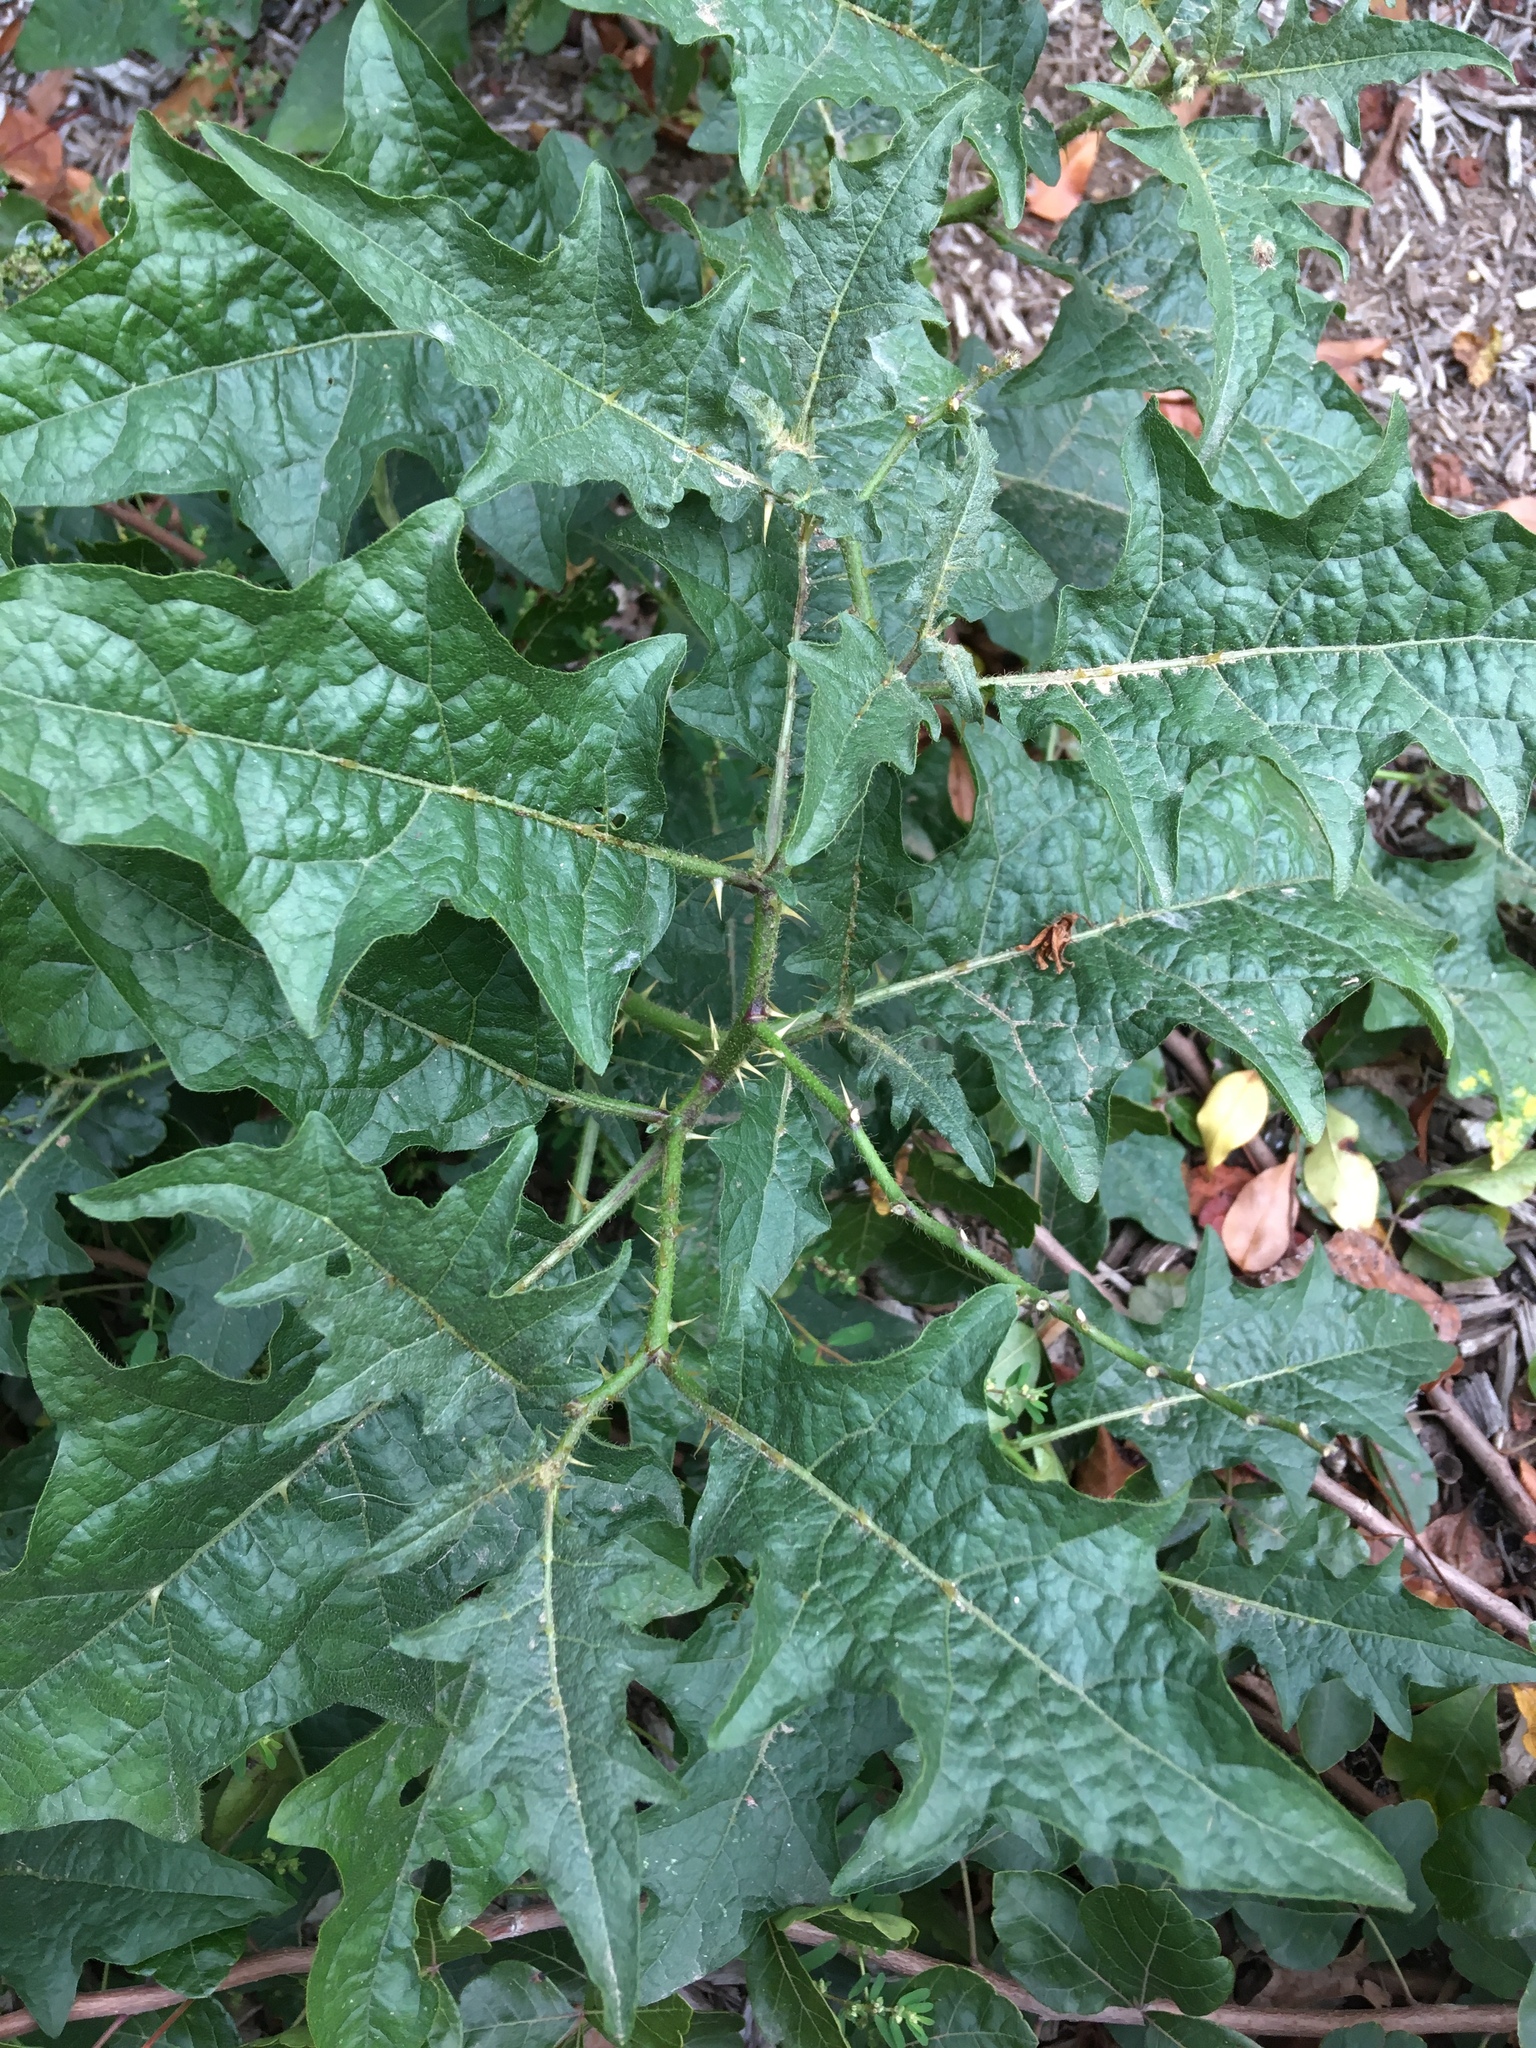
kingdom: Plantae
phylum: Tracheophyta
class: Magnoliopsida
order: Solanales
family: Solanaceae
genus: Solanum
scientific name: Solanum carolinense
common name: Horse-nettle
